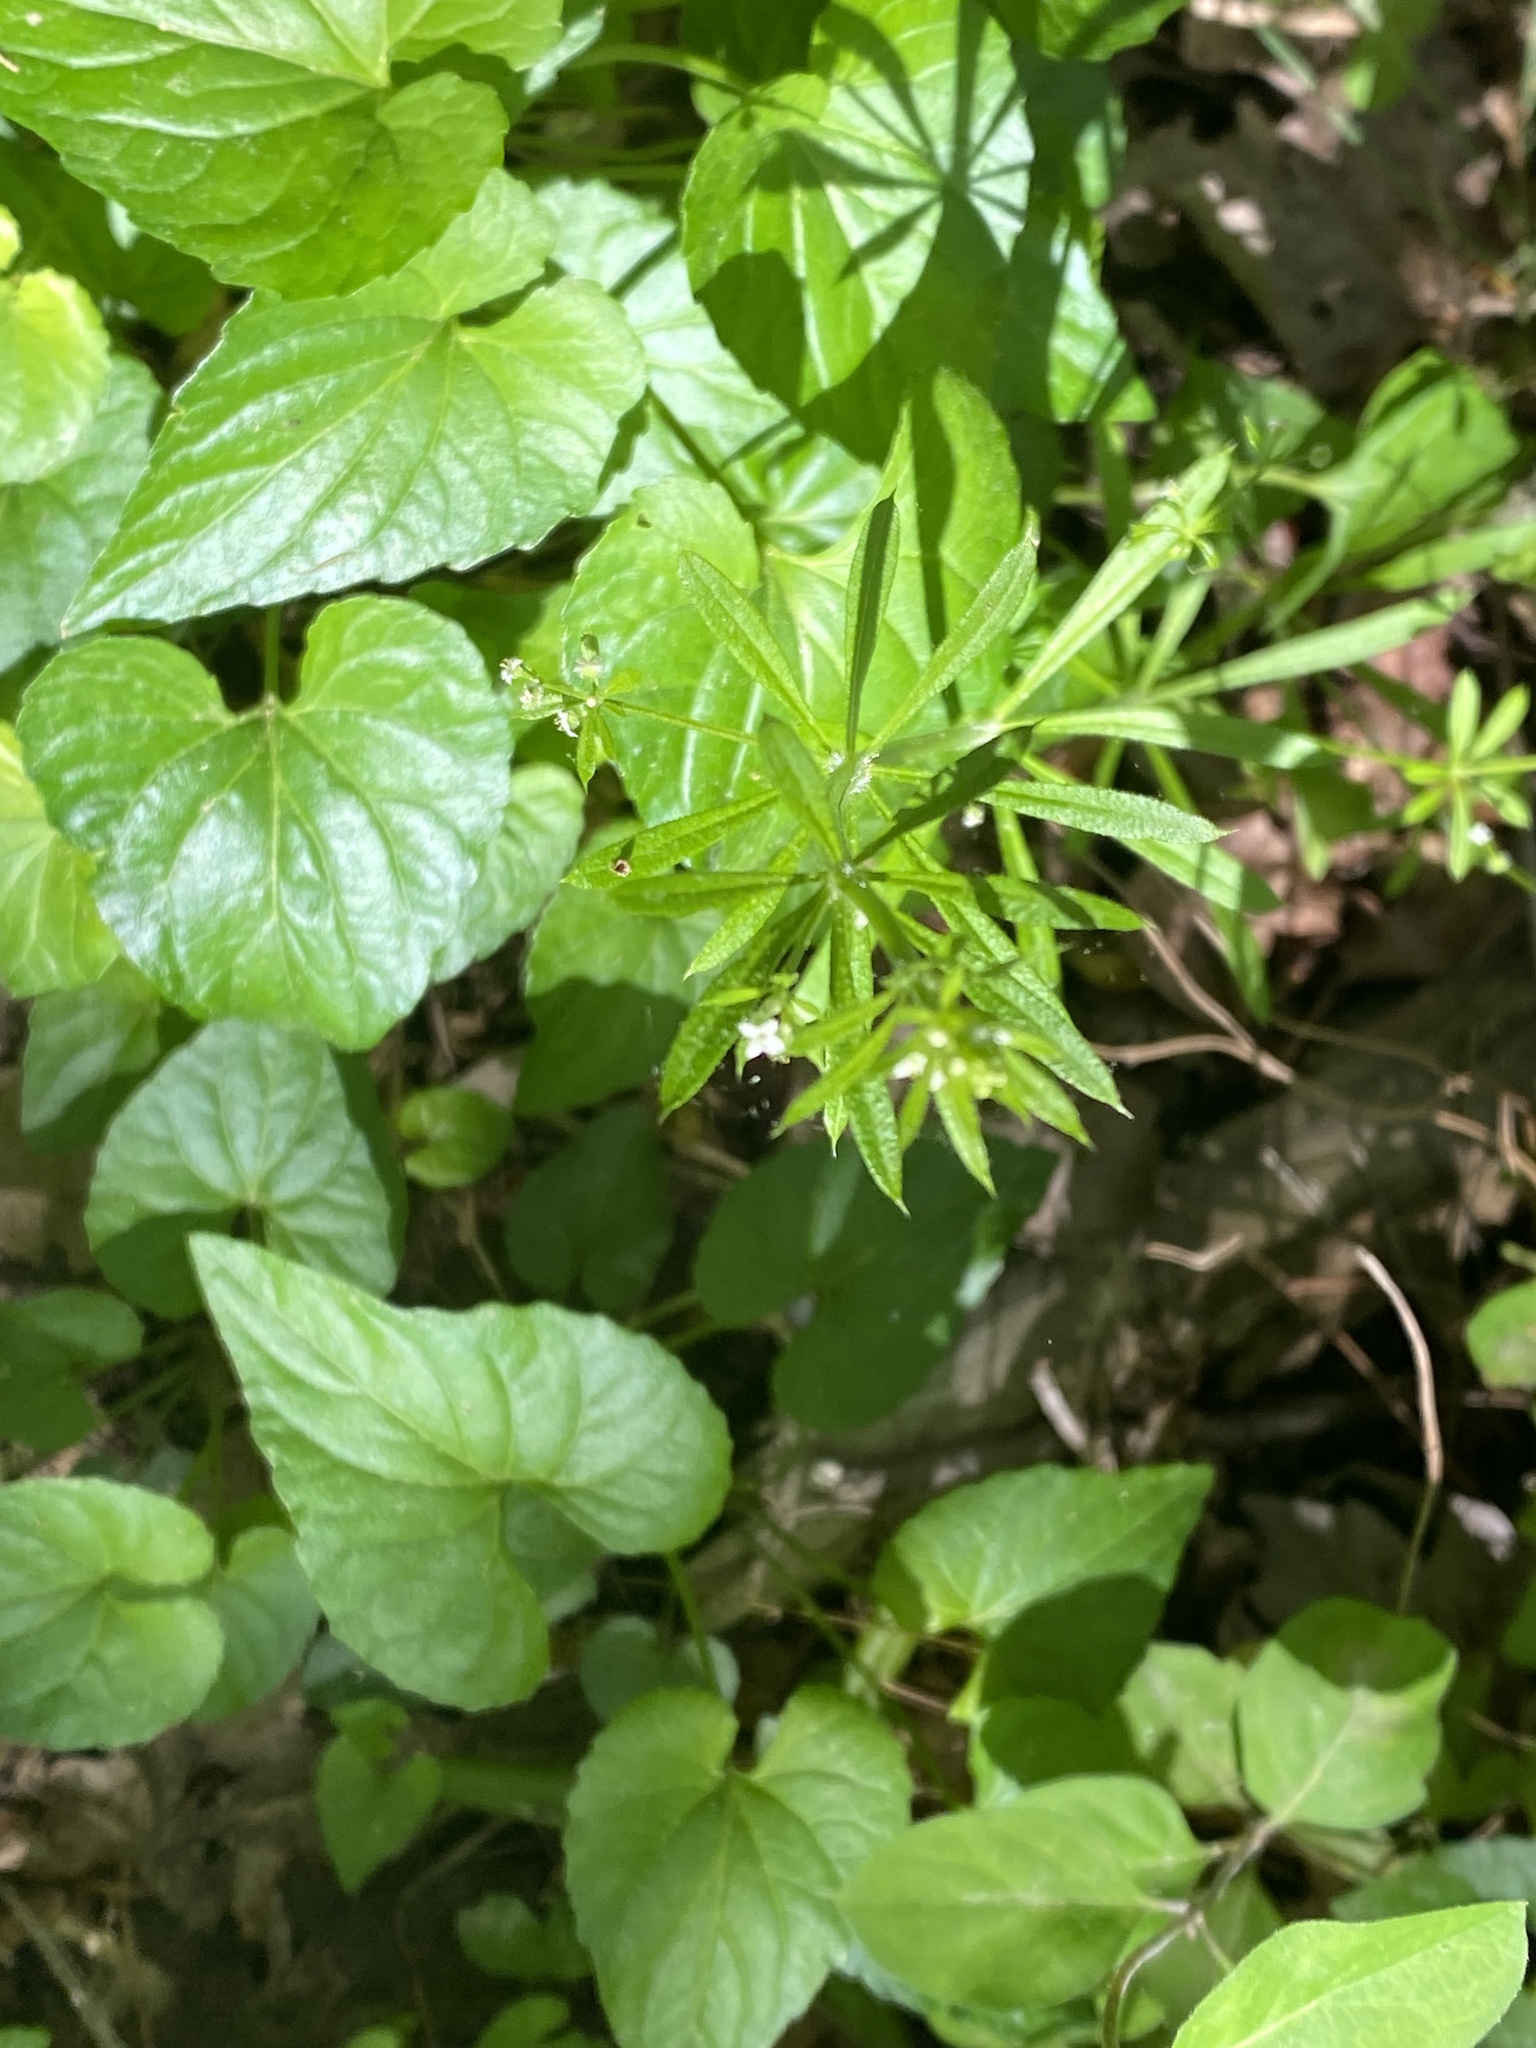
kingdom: Plantae
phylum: Tracheophyta
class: Magnoliopsida
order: Gentianales
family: Rubiaceae
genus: Galium
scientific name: Galium aparine
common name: Cleavers
